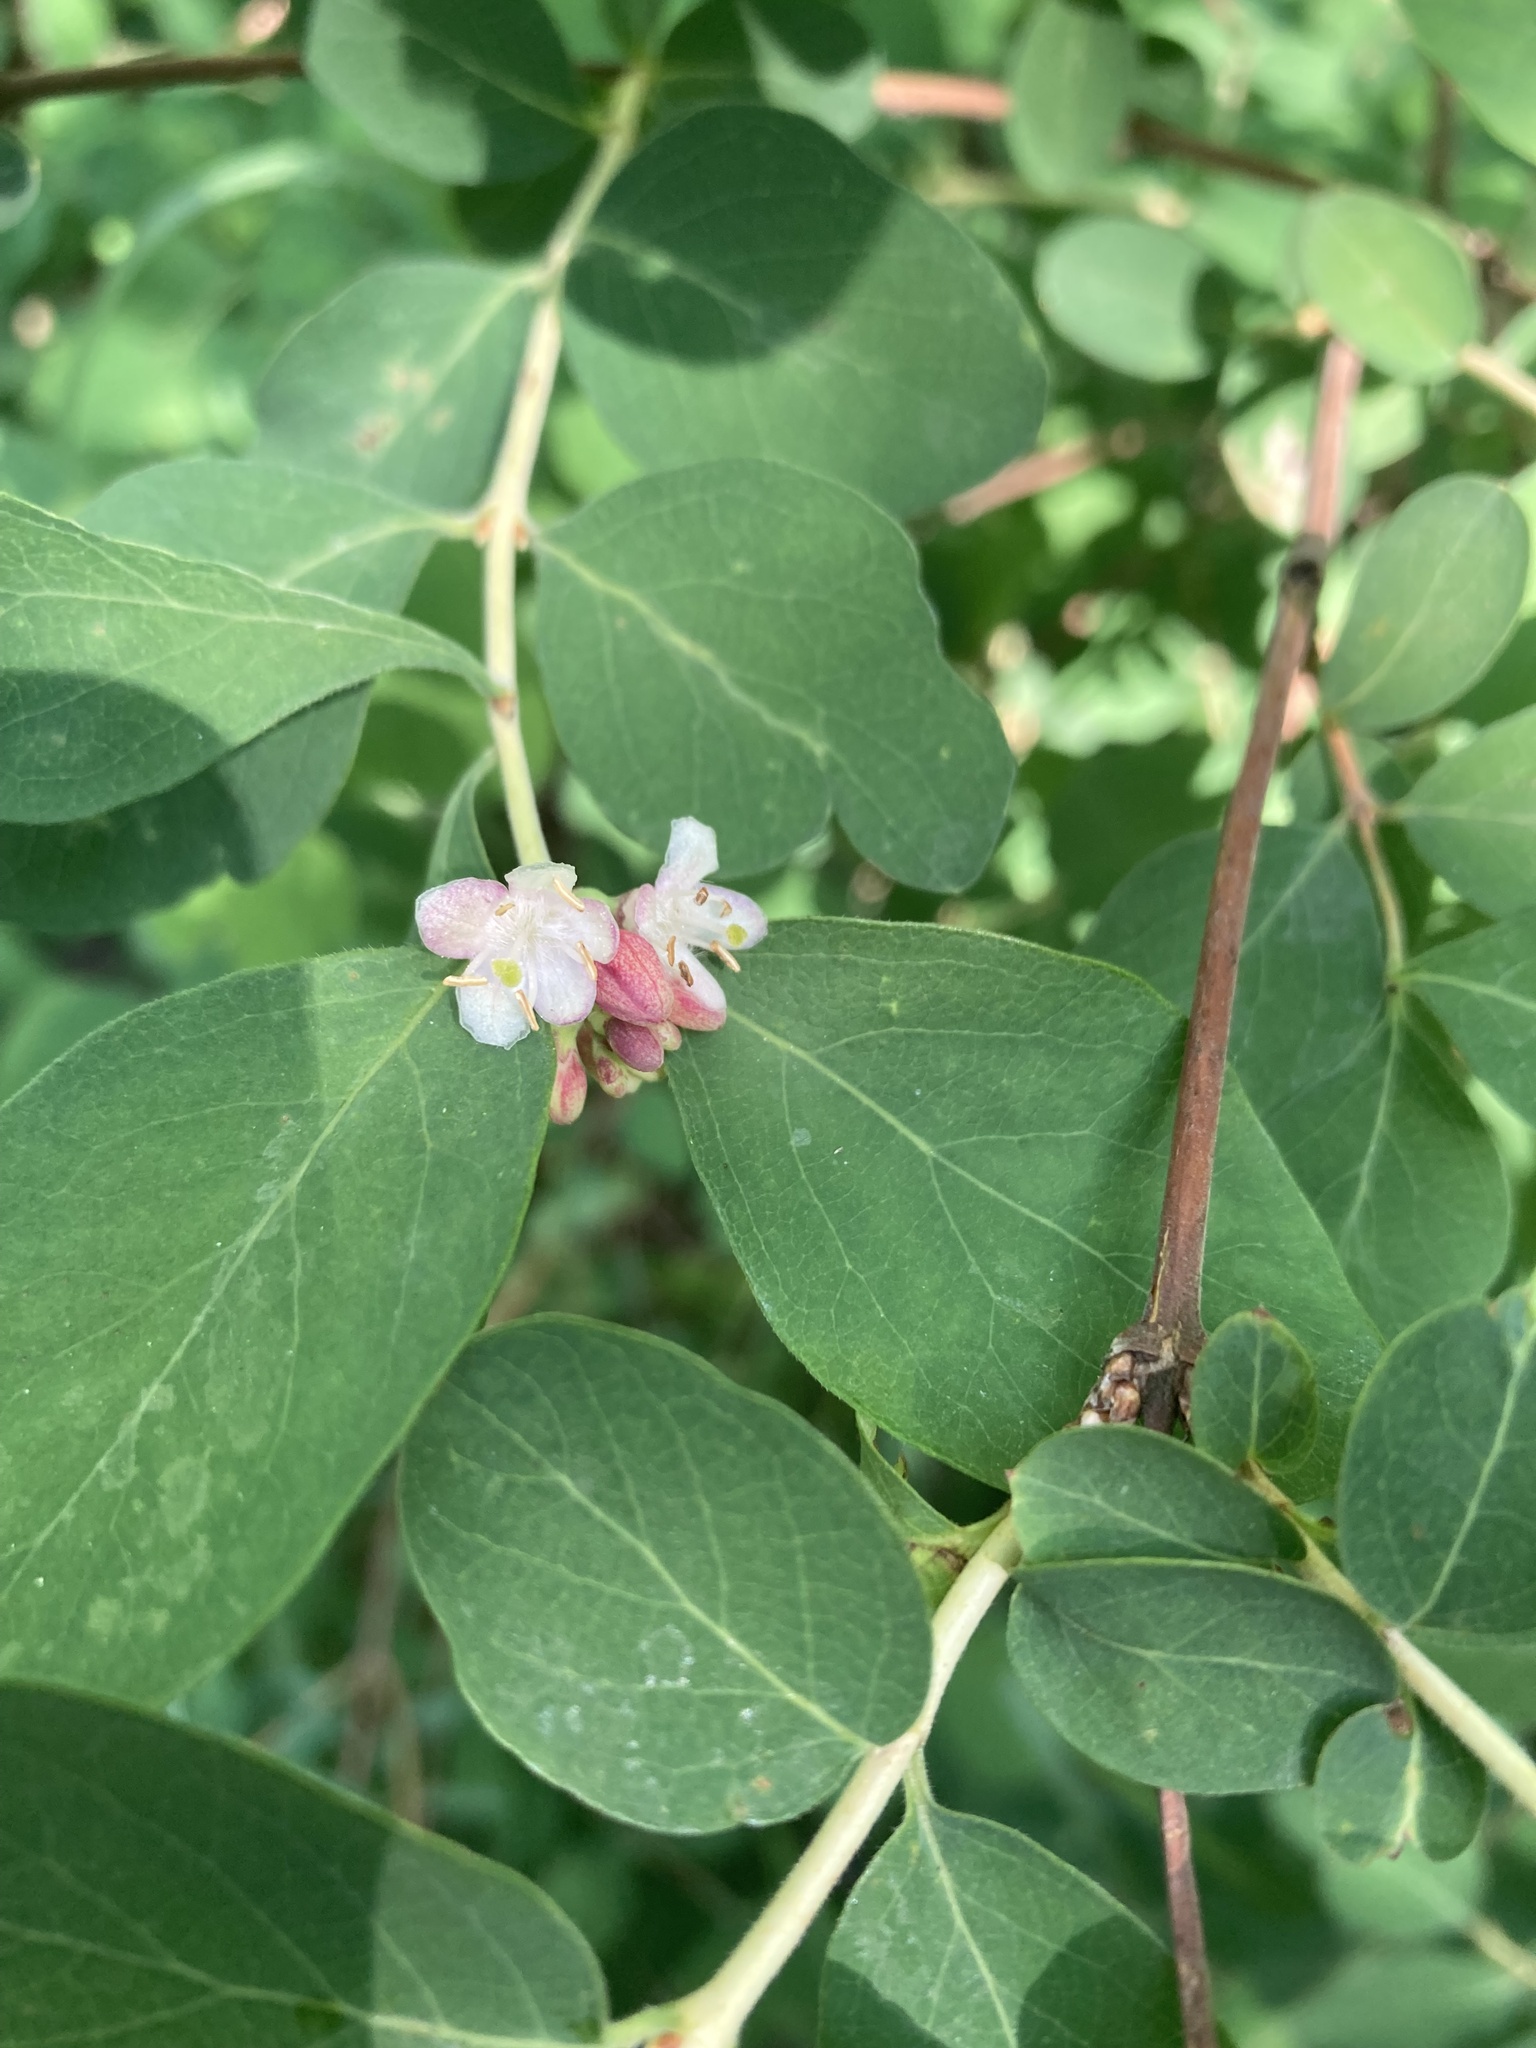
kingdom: Plantae
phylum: Tracheophyta
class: Magnoliopsida
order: Dipsacales
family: Caprifoliaceae
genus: Symphoricarpos
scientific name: Symphoricarpos albus
